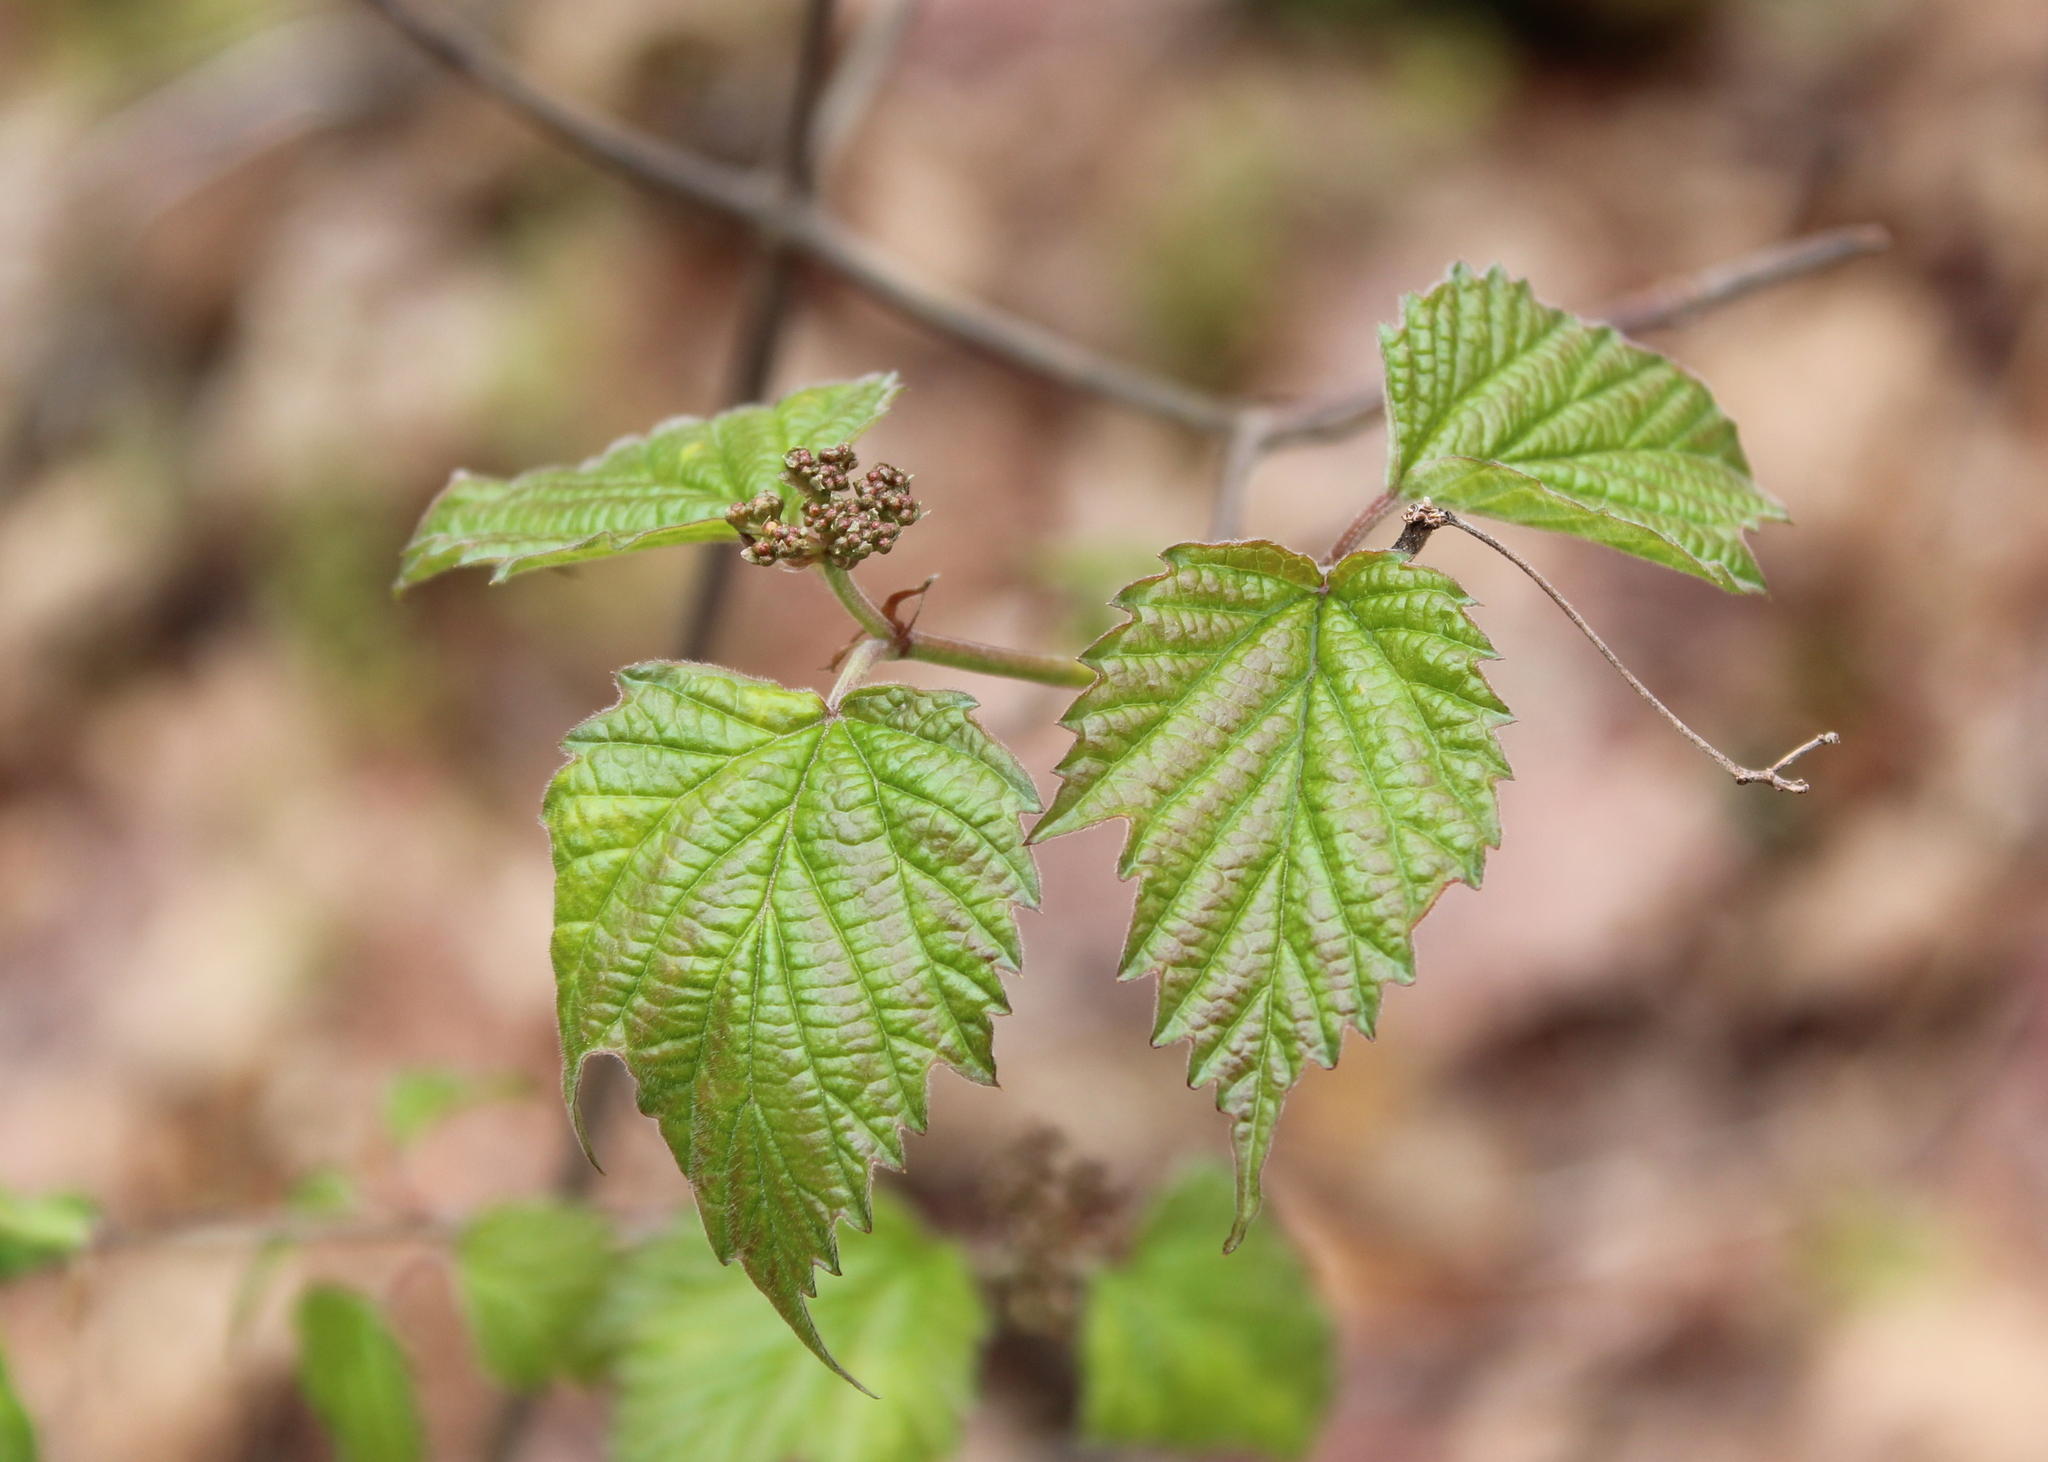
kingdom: Plantae
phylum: Tracheophyta
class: Magnoliopsida
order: Dipsacales
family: Viburnaceae
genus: Viburnum
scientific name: Viburnum acerifolium
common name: Dockmackie
